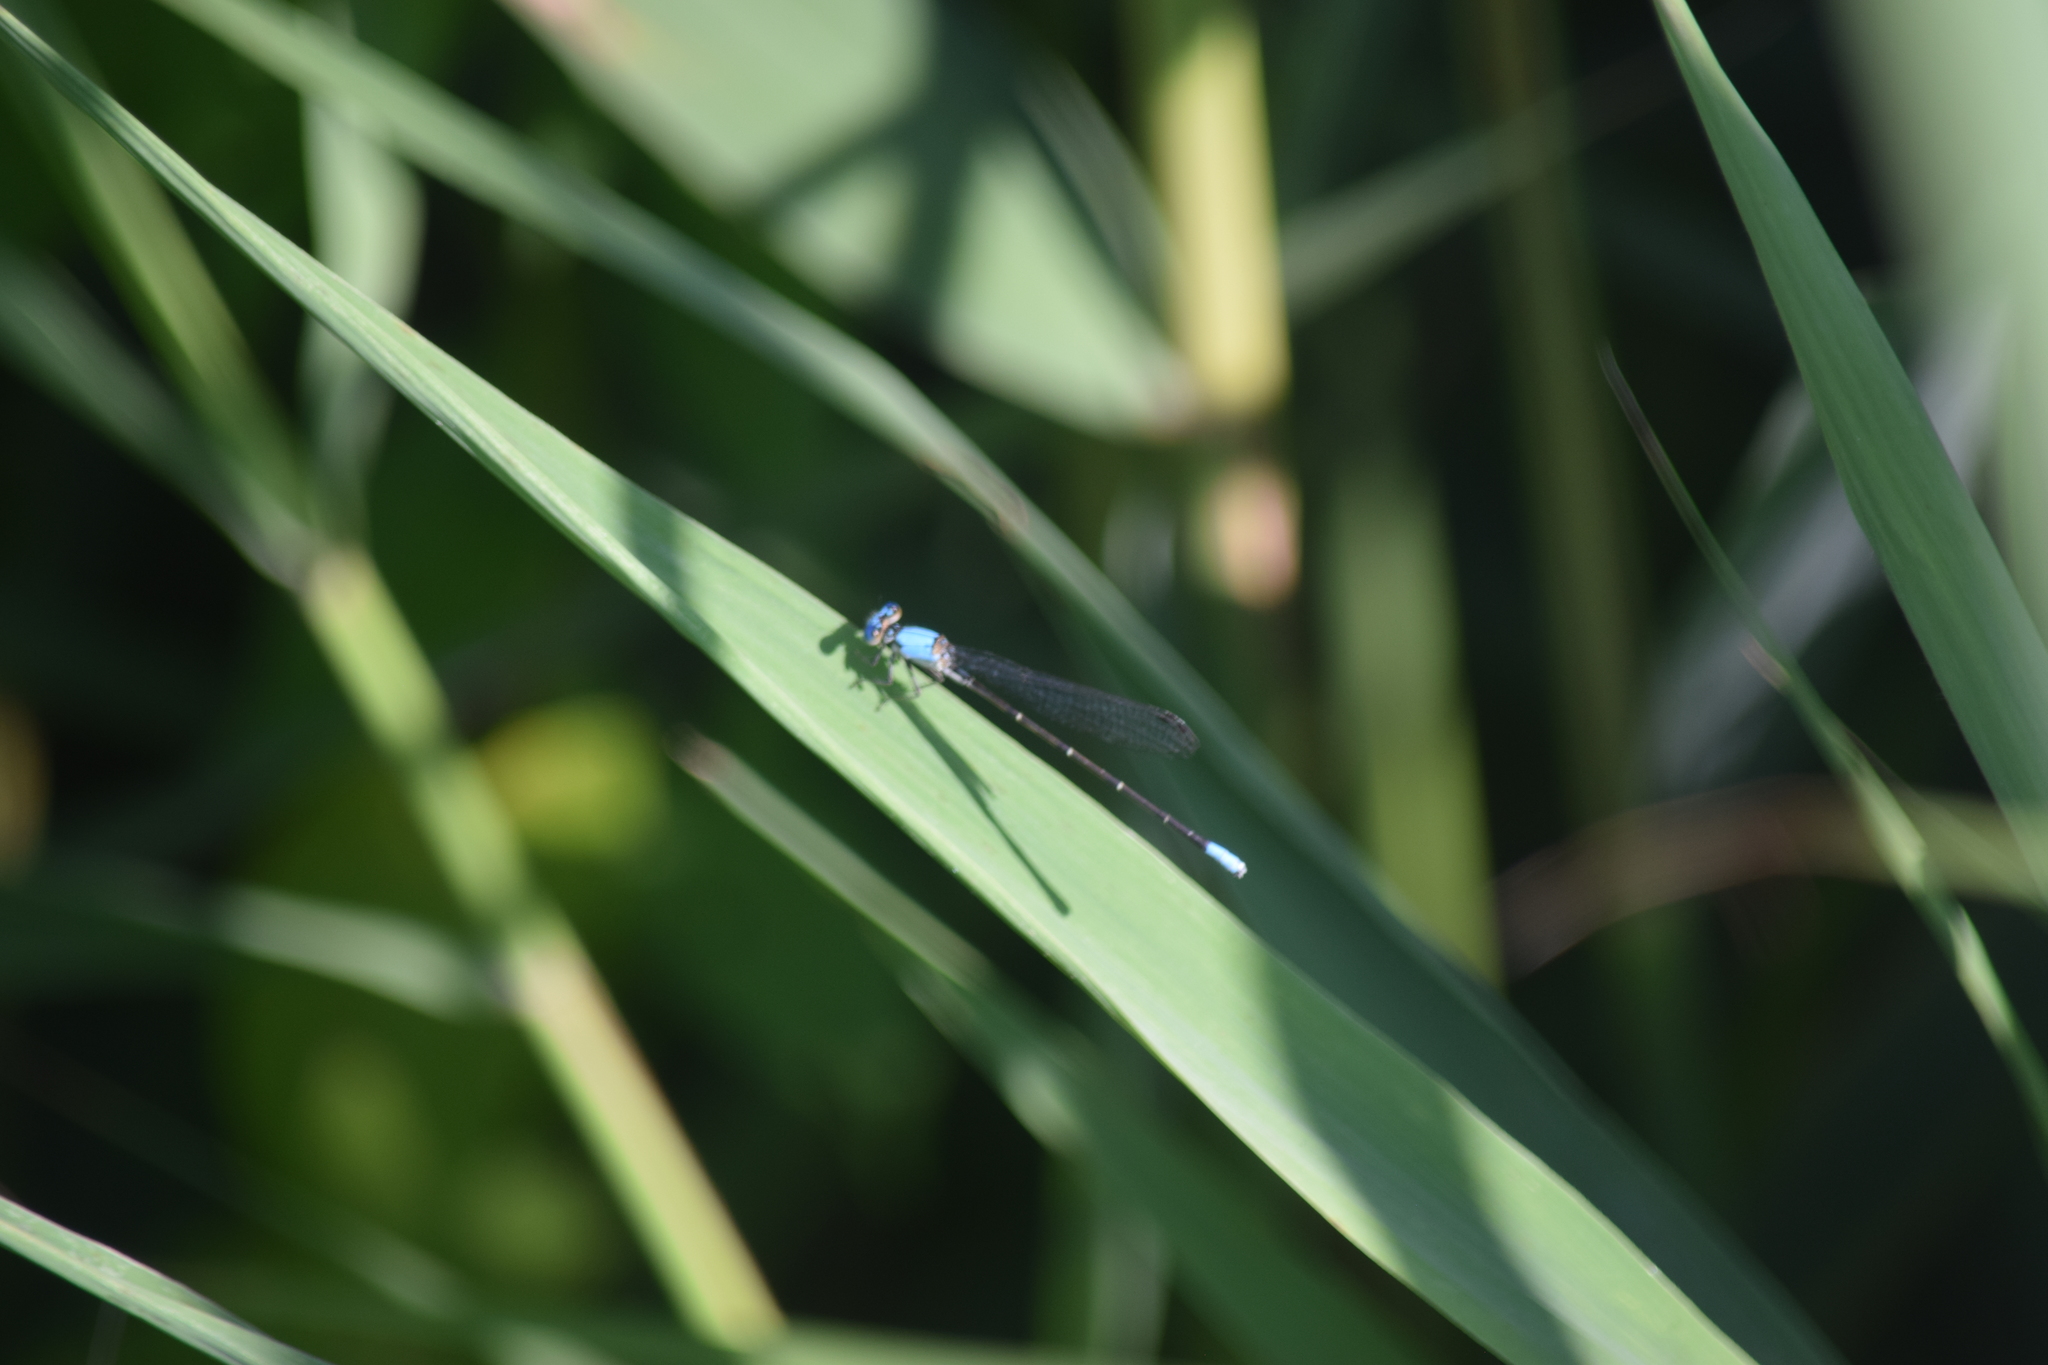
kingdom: Animalia
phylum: Arthropoda
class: Insecta
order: Odonata
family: Coenagrionidae
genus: Argia
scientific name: Argia apicalis
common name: Blue-fronted dancer
